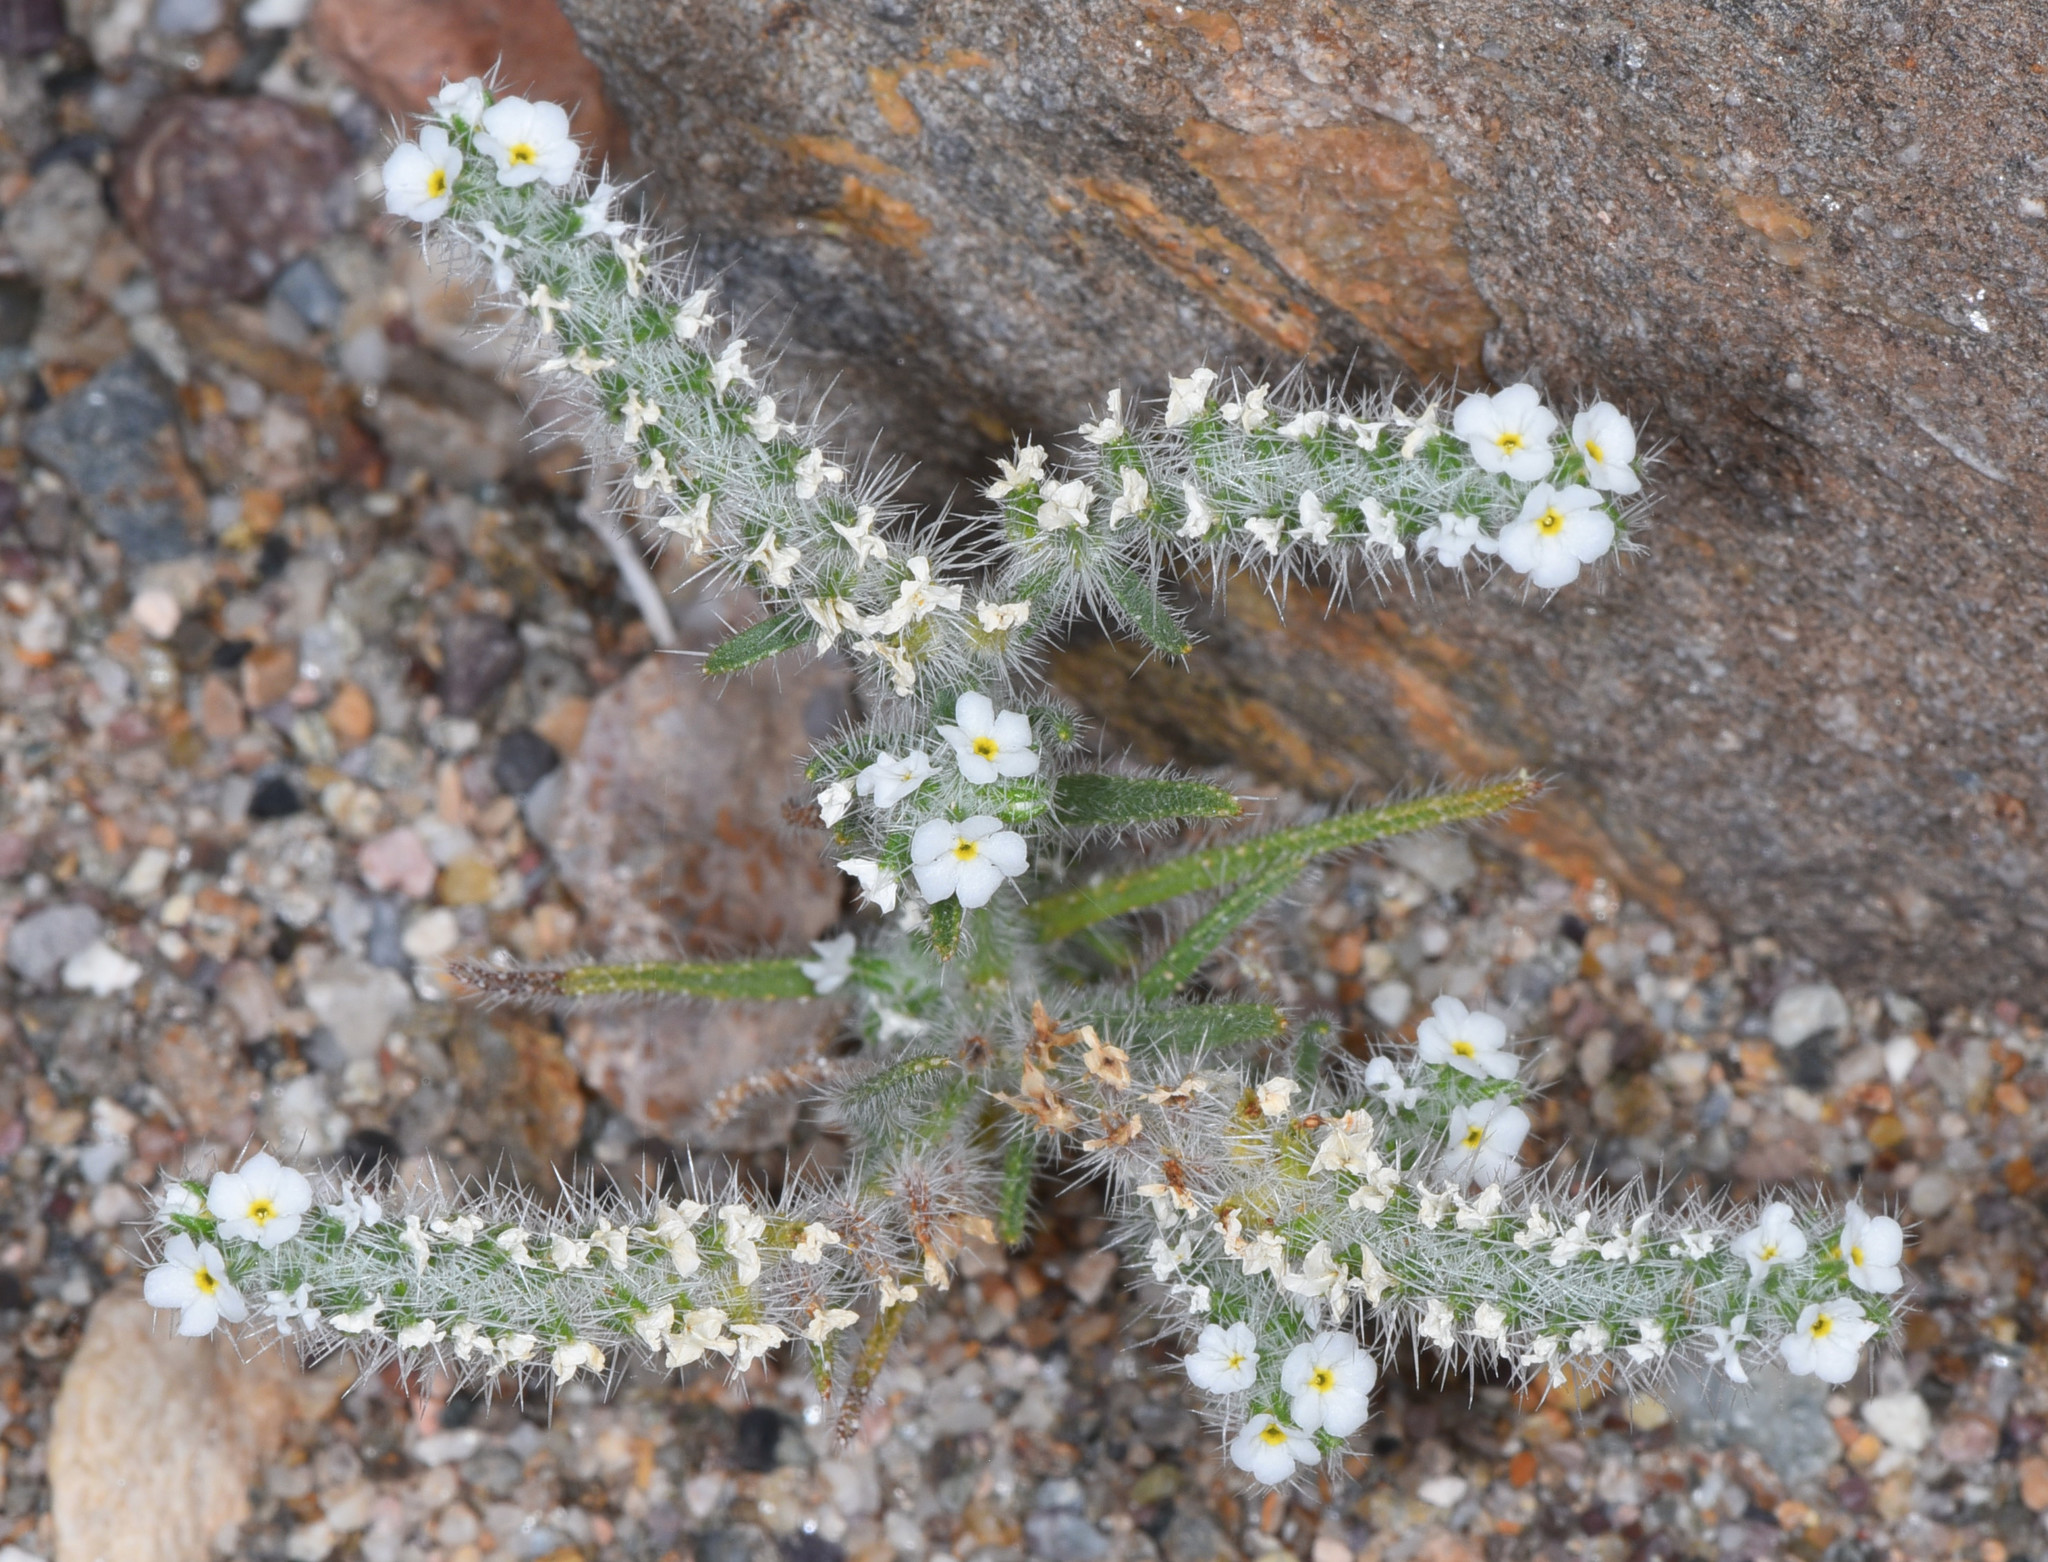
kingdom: Plantae
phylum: Tracheophyta
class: Magnoliopsida
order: Boraginales
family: Boraginaceae
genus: Johnstonella
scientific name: Johnstonella angustifolia
